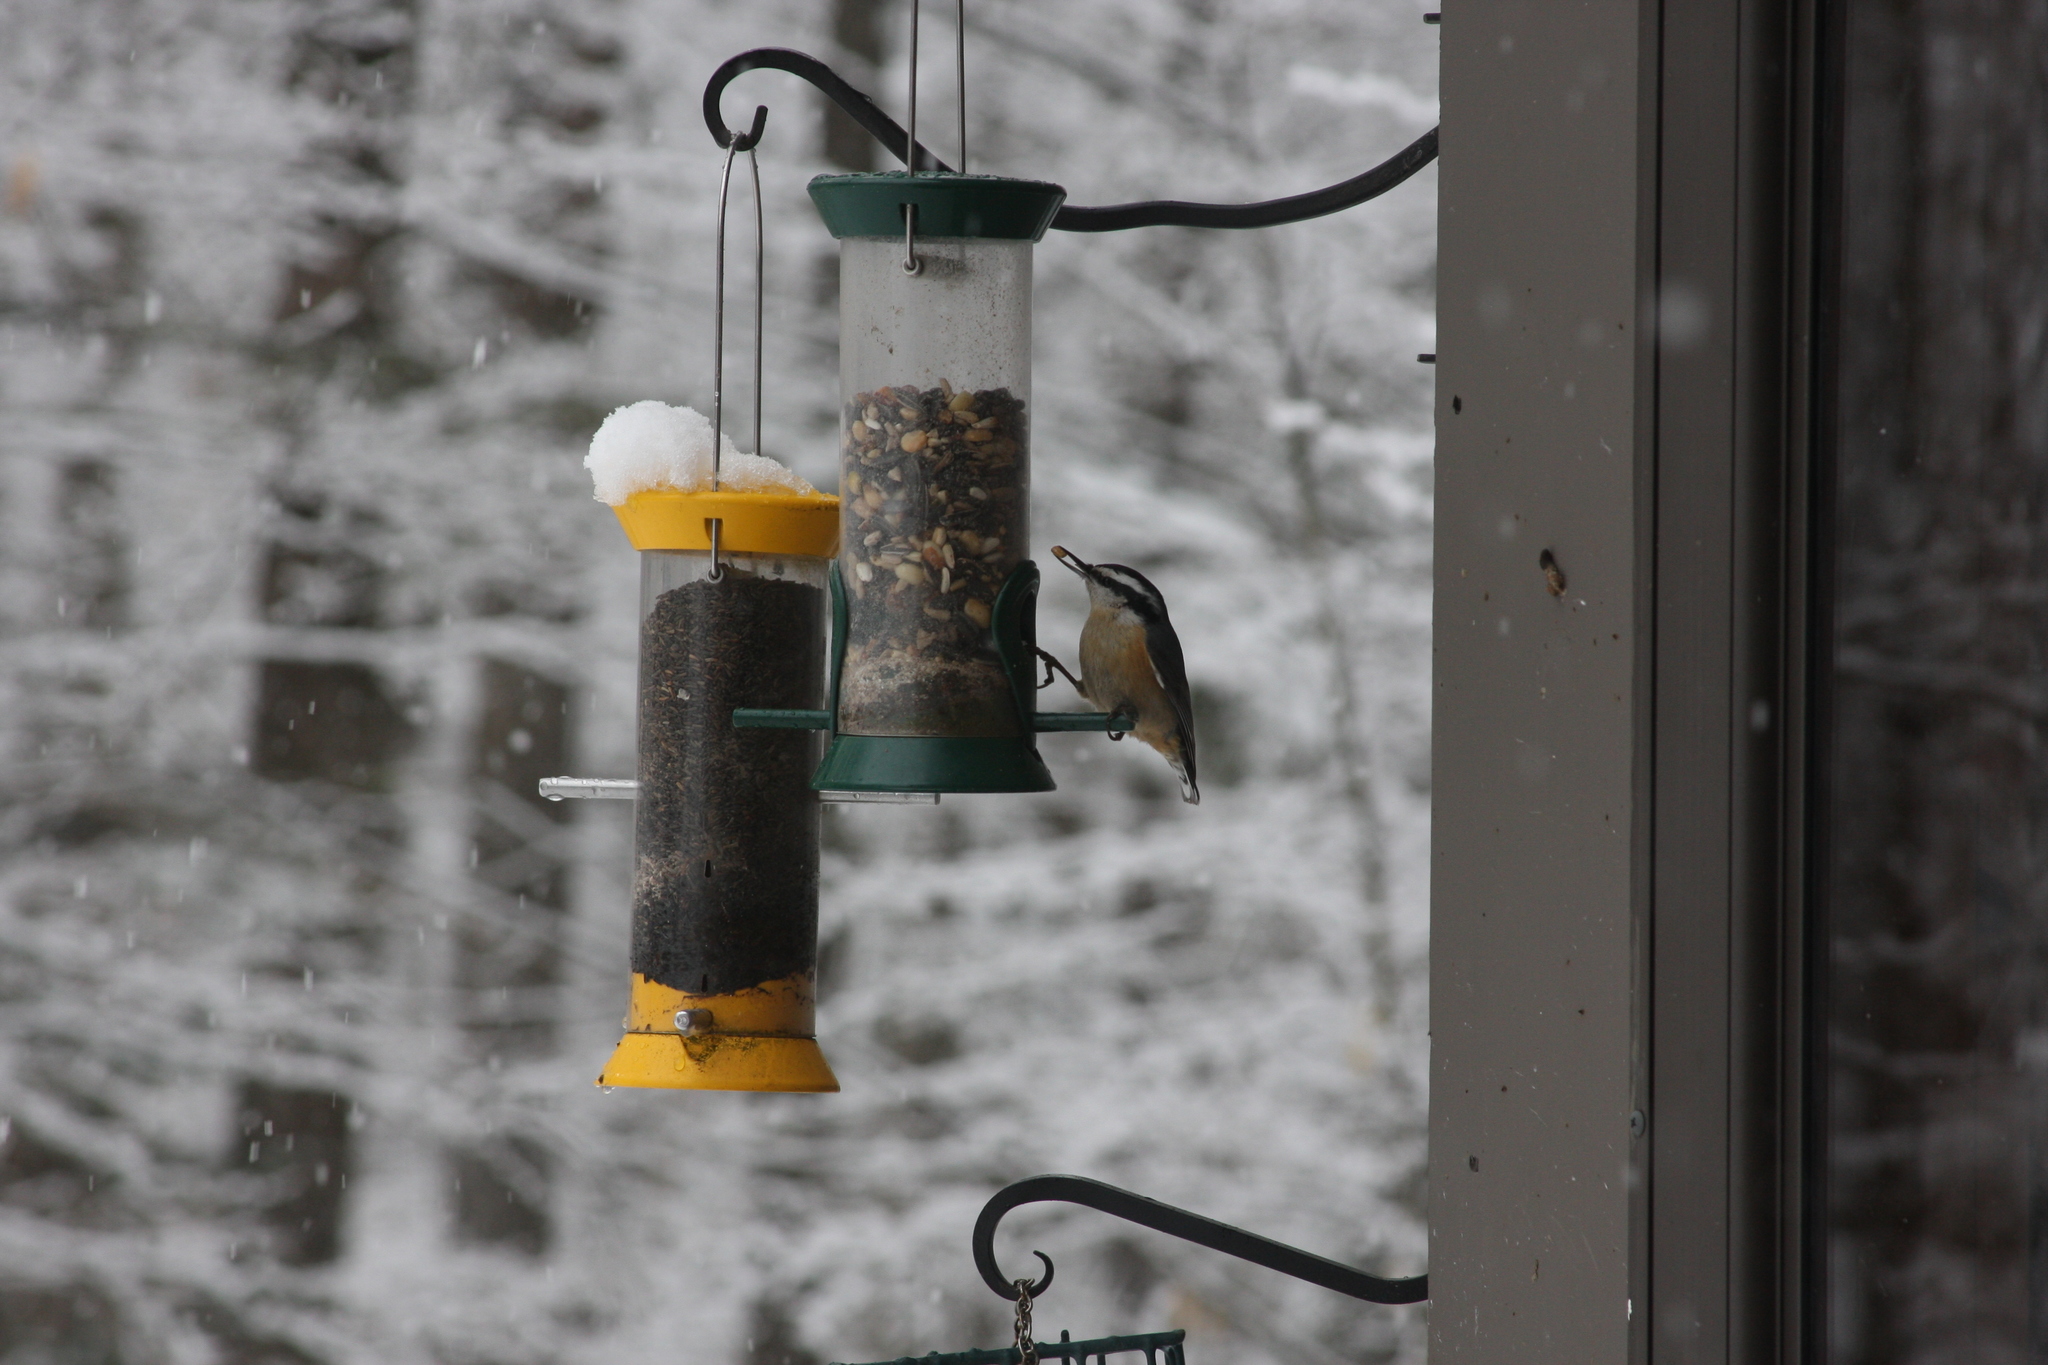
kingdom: Animalia
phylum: Chordata
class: Aves
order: Passeriformes
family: Sittidae
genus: Sitta
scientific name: Sitta canadensis
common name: Red-breasted nuthatch
